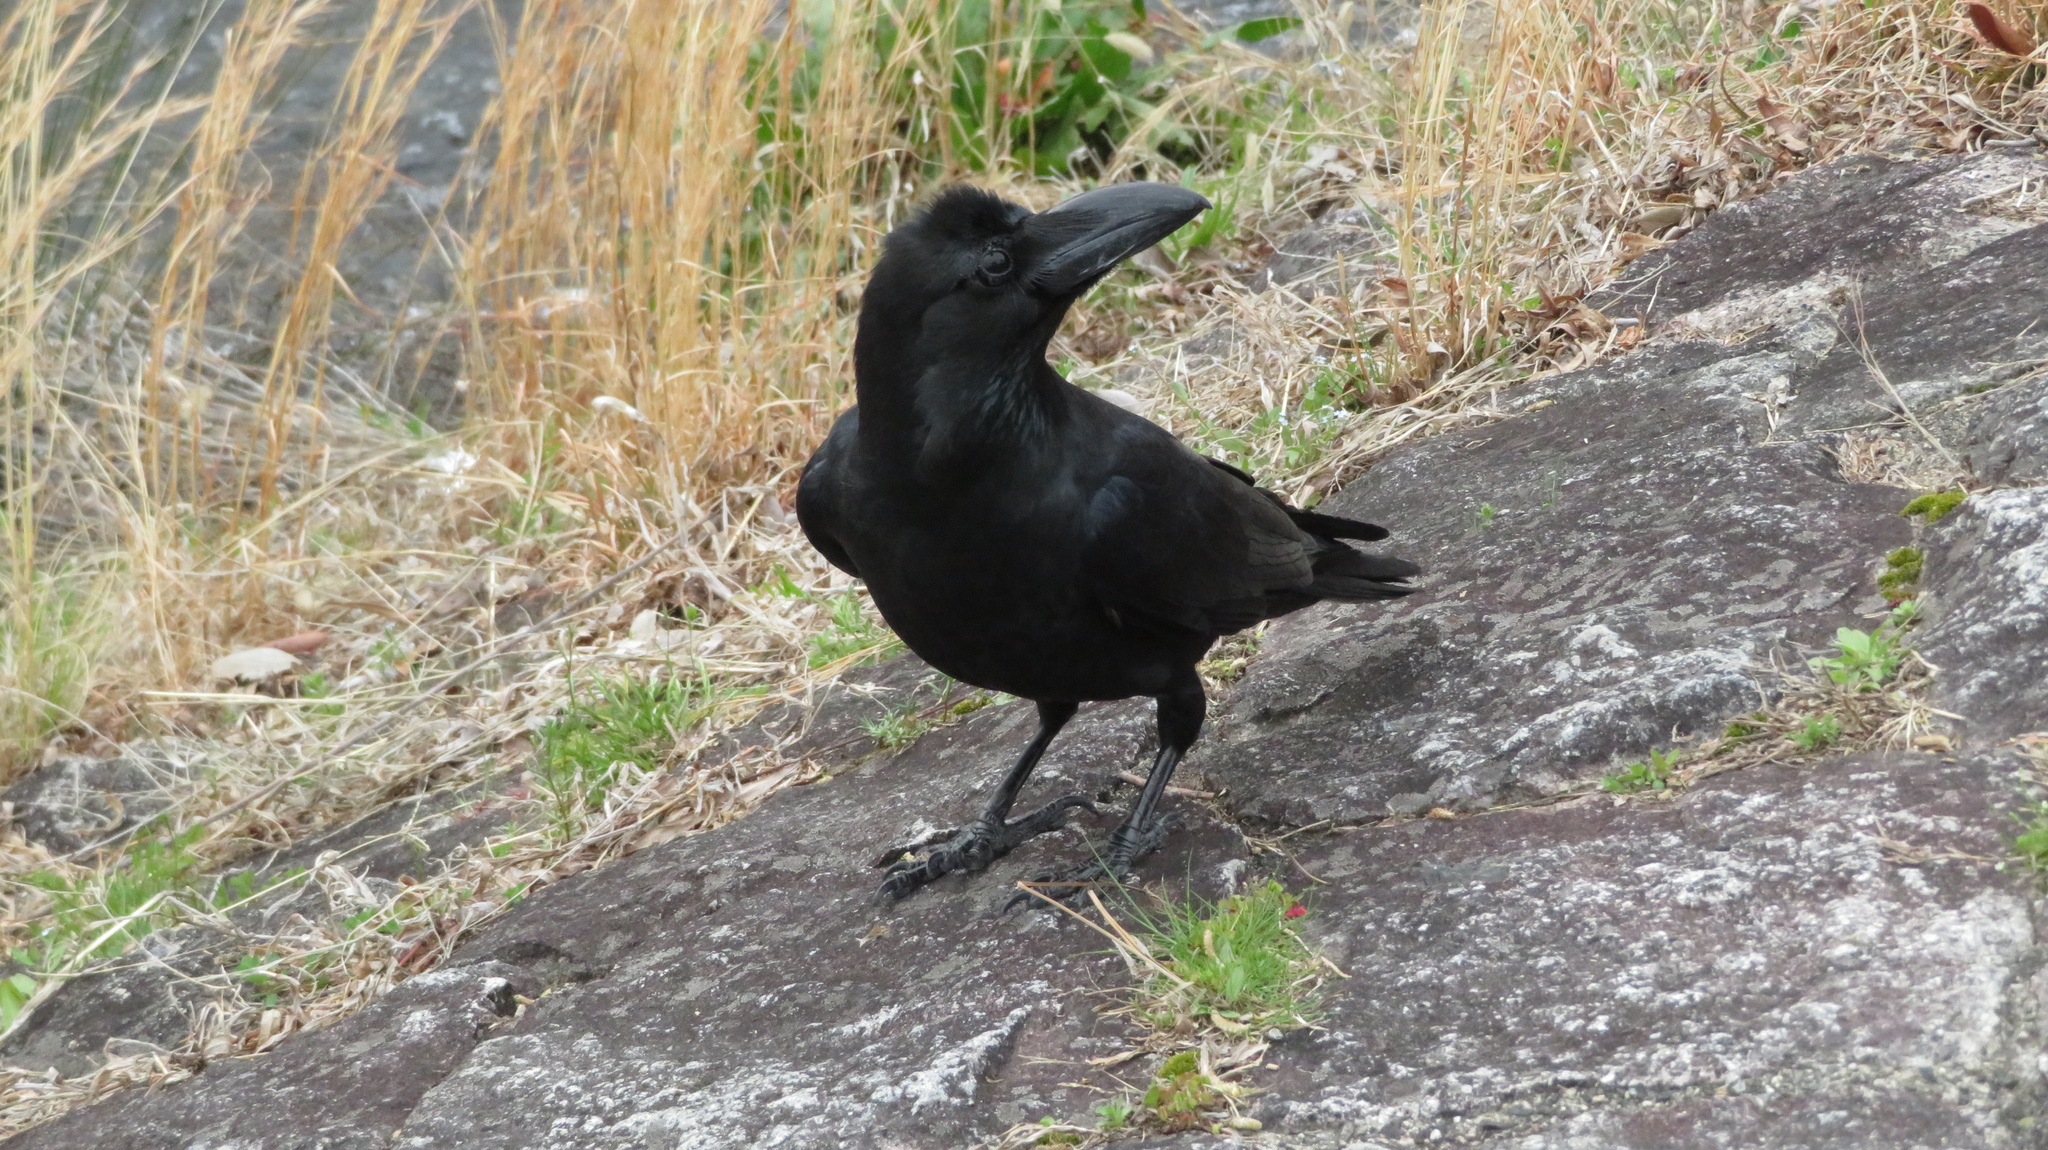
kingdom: Animalia
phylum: Chordata
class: Aves
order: Passeriformes
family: Corvidae
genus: Corvus
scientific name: Corvus macrorhynchos
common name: Large-billed crow
